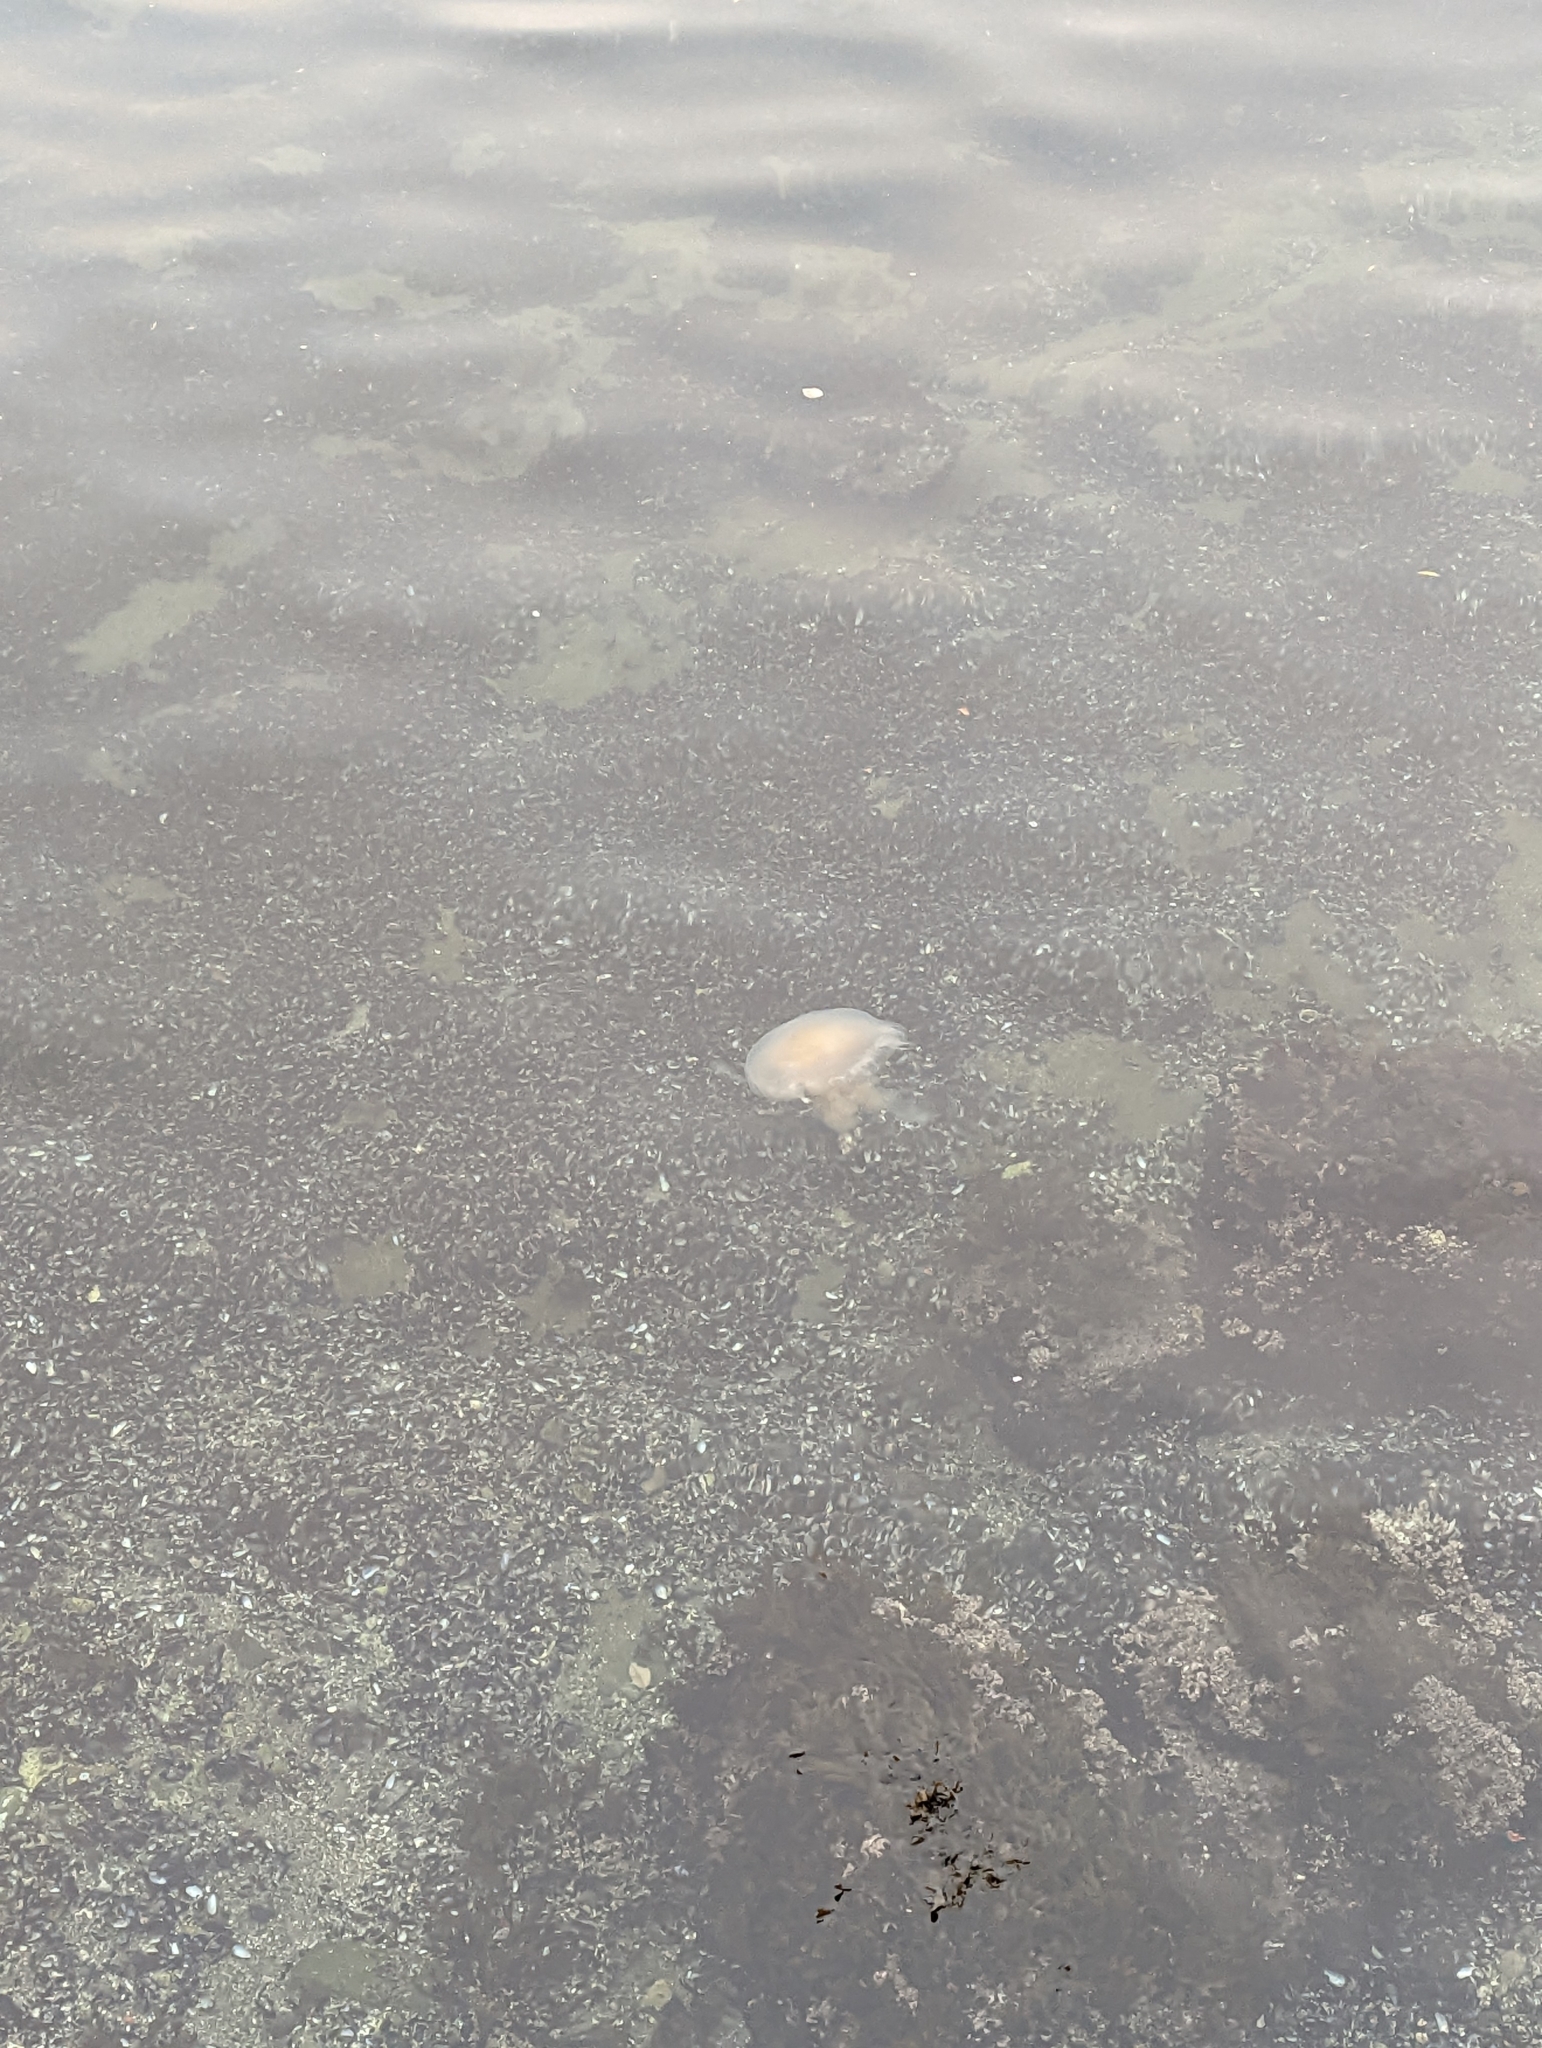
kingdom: Animalia
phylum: Cnidaria
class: Scyphozoa
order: Semaeostomeae
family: Phacellophoridae
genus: Phacellophora
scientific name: Phacellophora camtschatica
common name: Fried-egg jellyfish
